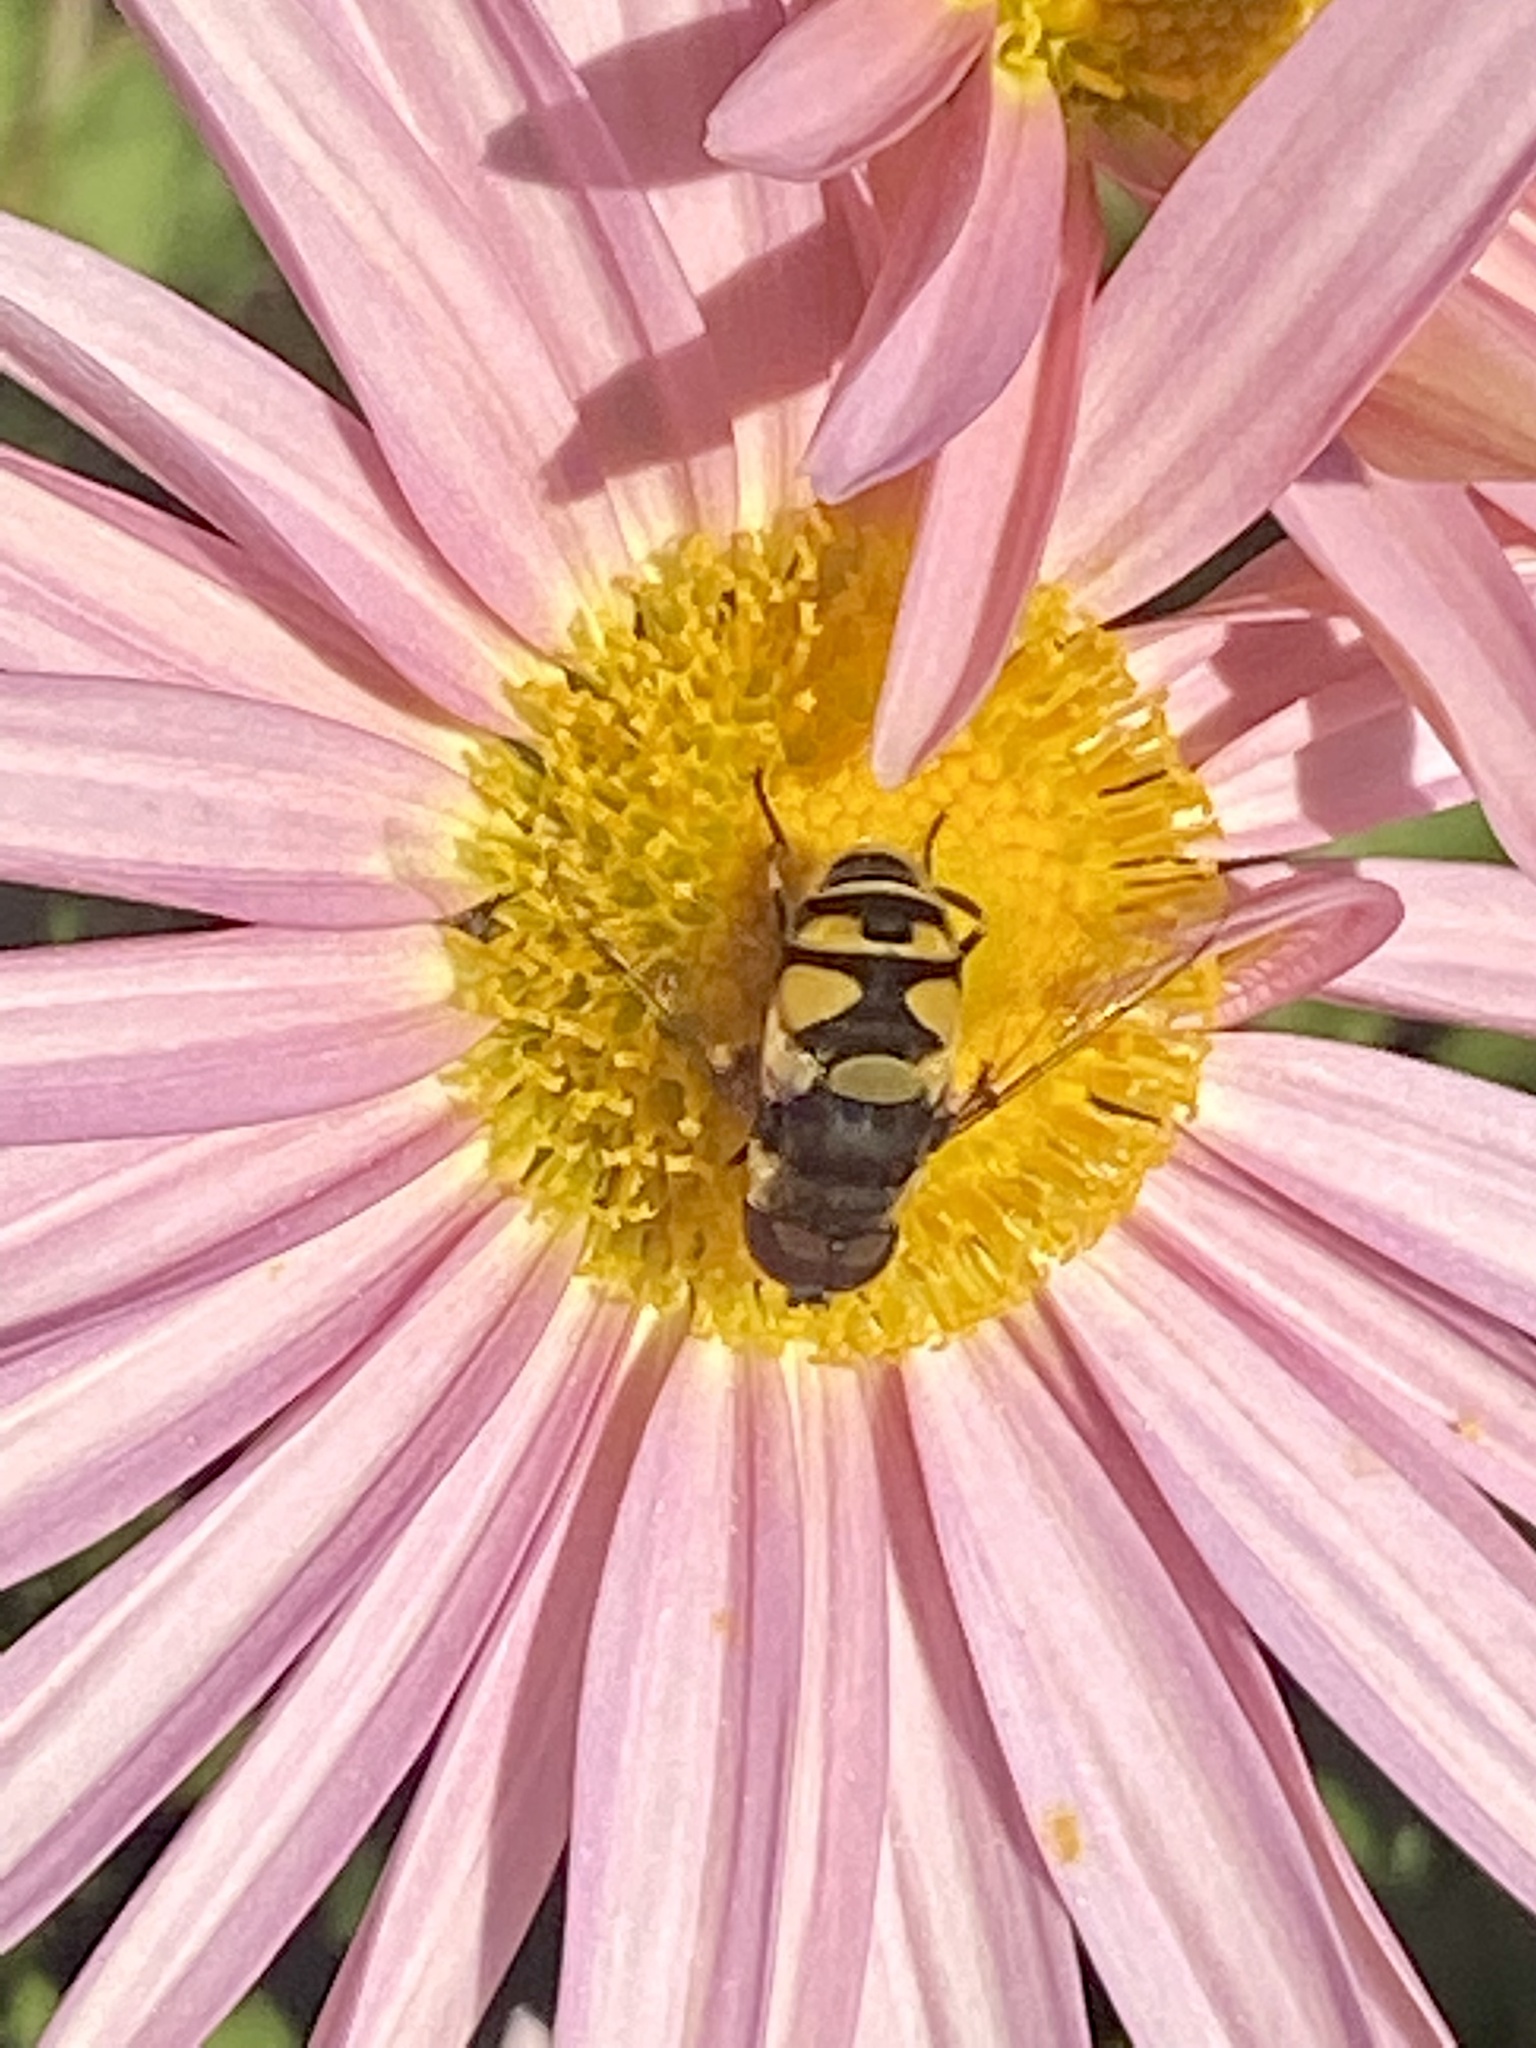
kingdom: Animalia
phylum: Arthropoda
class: Insecta
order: Diptera
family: Syrphidae
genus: Eristalis
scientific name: Eristalis transversa
